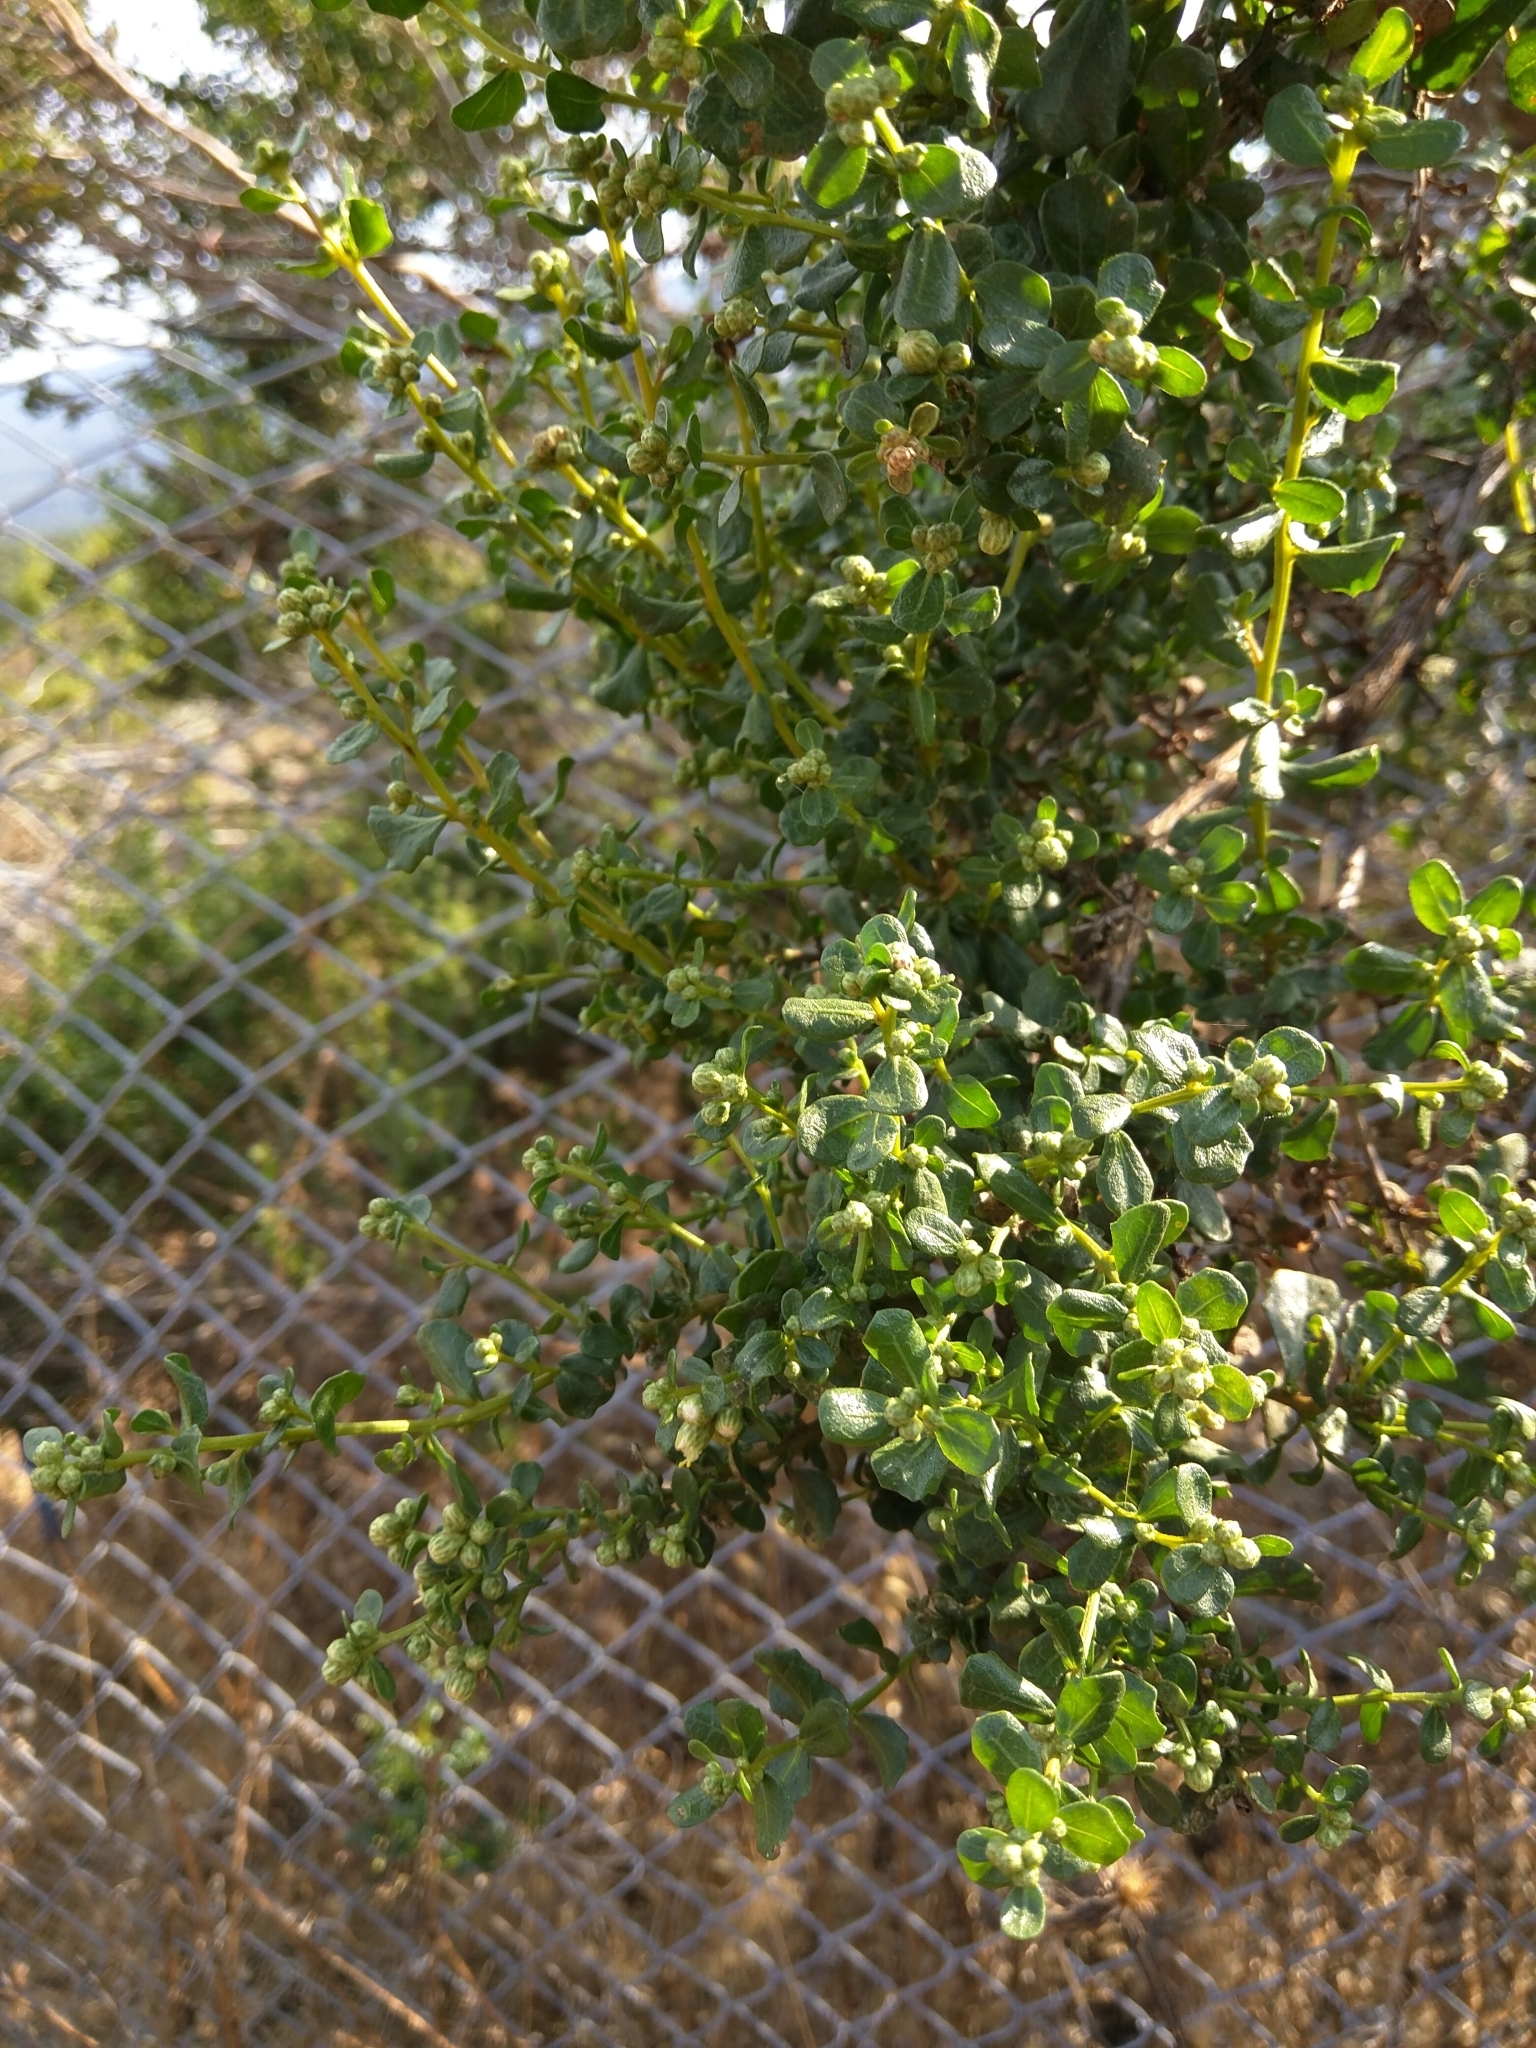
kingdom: Plantae
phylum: Tracheophyta
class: Magnoliopsida
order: Asterales
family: Asteraceae
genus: Baccharis
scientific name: Baccharis pilularis
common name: Coyotebrush
